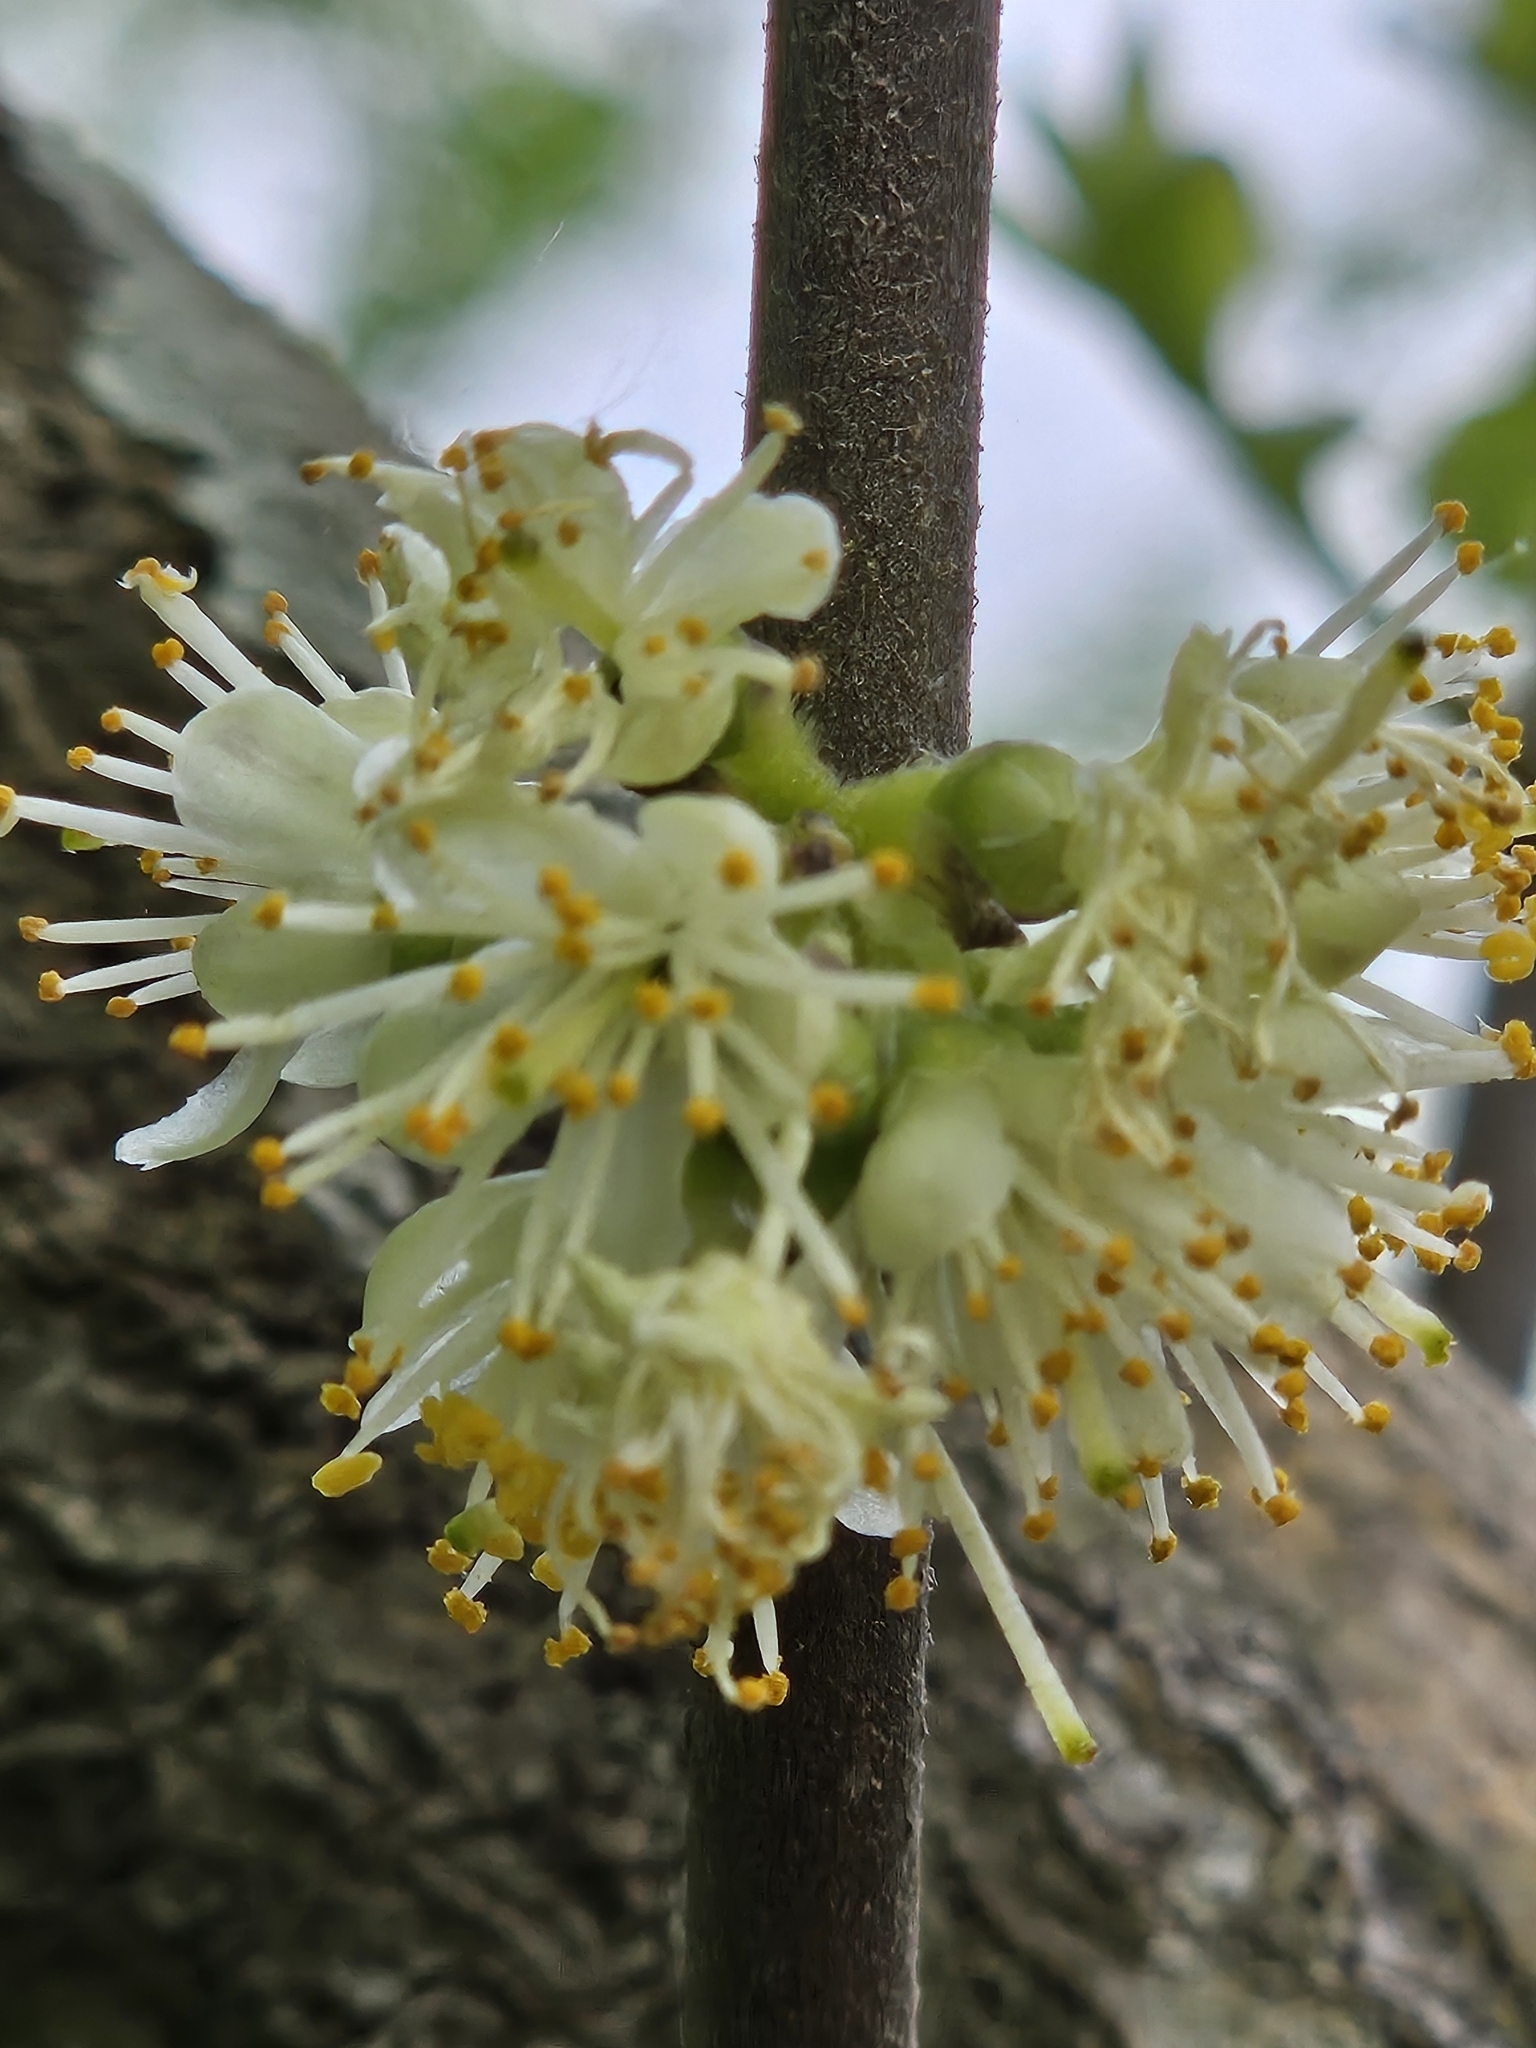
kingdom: Plantae
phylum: Tracheophyta
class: Magnoliopsida
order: Ericales
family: Symplocaceae
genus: Symplocos
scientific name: Symplocos tinctoria
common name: Horse-sugar
